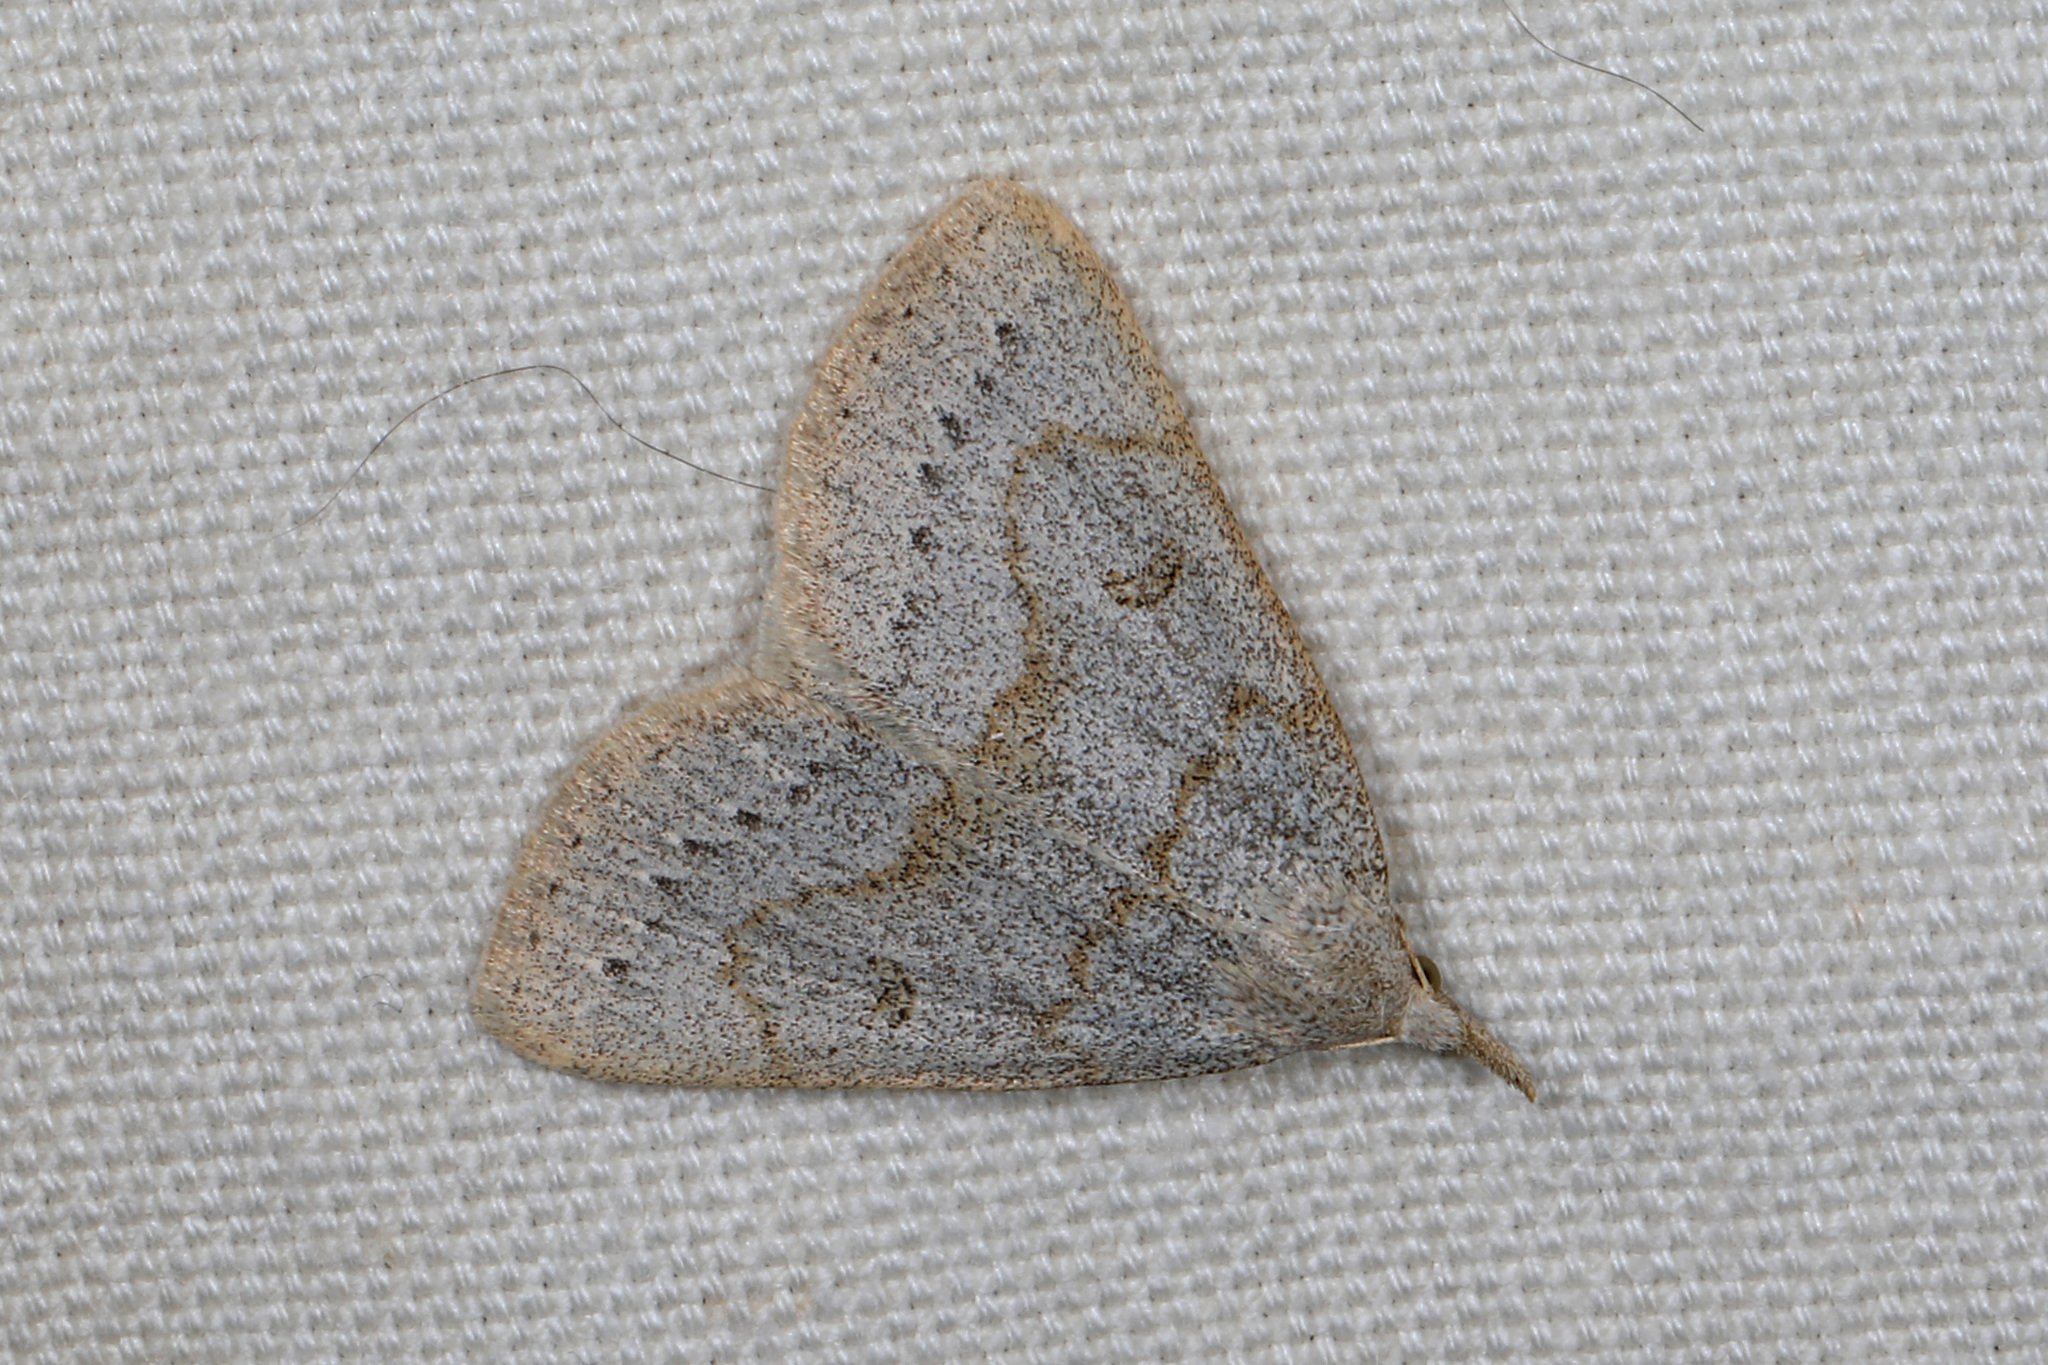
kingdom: Animalia
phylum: Arthropoda
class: Insecta
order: Lepidoptera
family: Erebidae
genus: Macrochilo
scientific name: Macrochilo morbidalis
